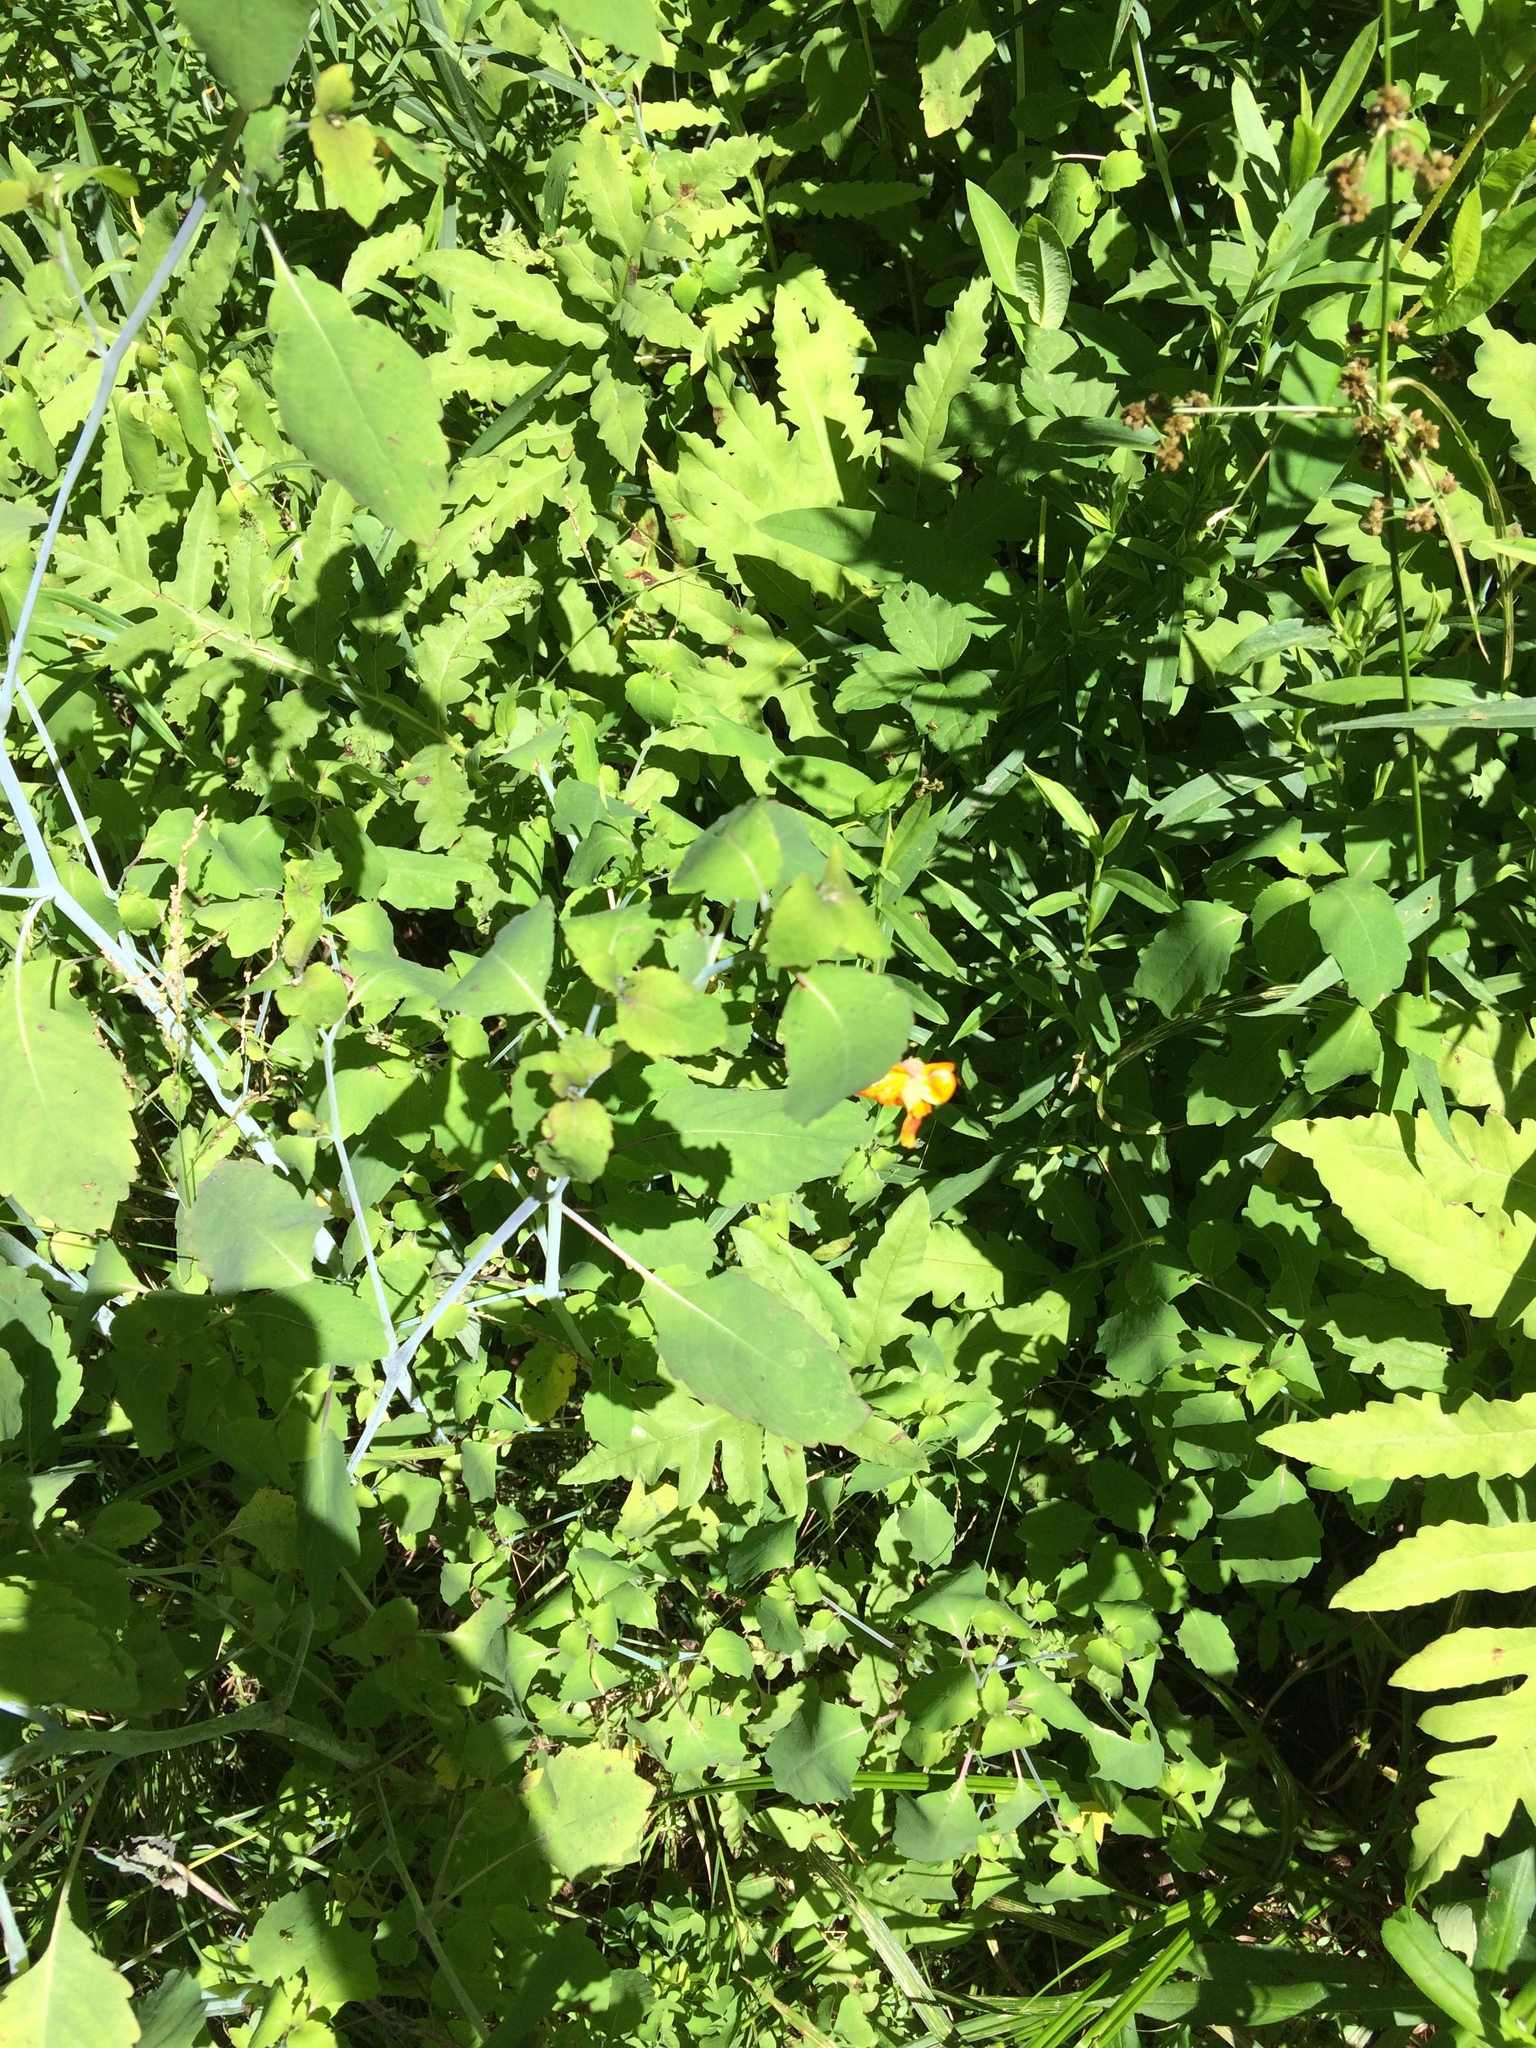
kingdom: Plantae
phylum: Tracheophyta
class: Magnoliopsida
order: Ericales
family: Balsaminaceae
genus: Impatiens
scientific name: Impatiens capensis
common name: Orange balsam
